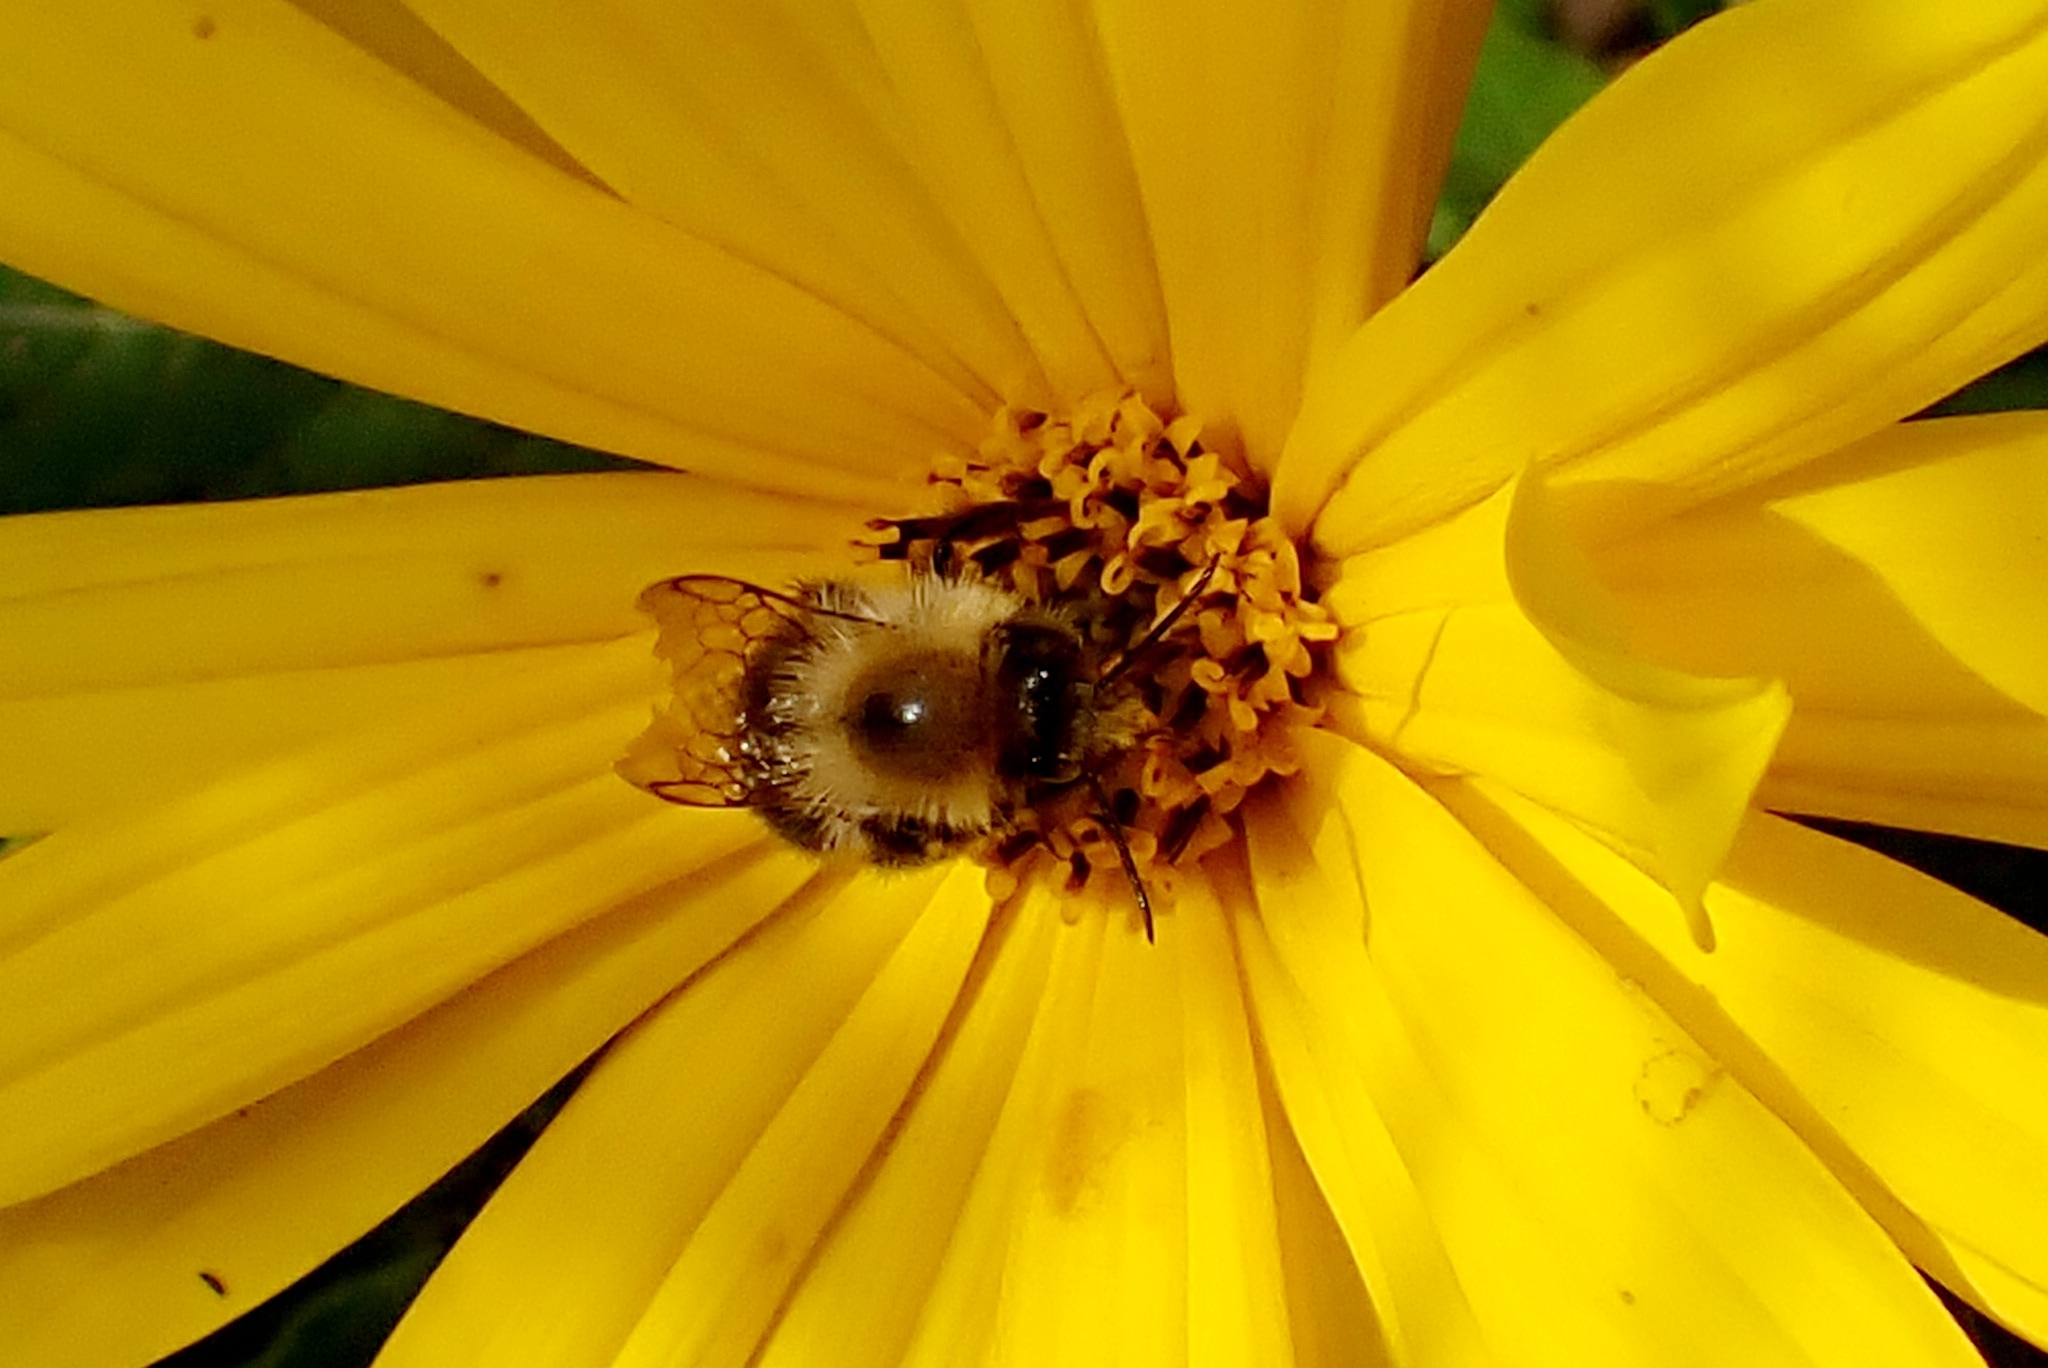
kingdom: Animalia
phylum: Arthropoda
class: Insecta
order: Hymenoptera
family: Apidae
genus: Bombus
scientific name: Bombus pascuorum
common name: Common carder bee
